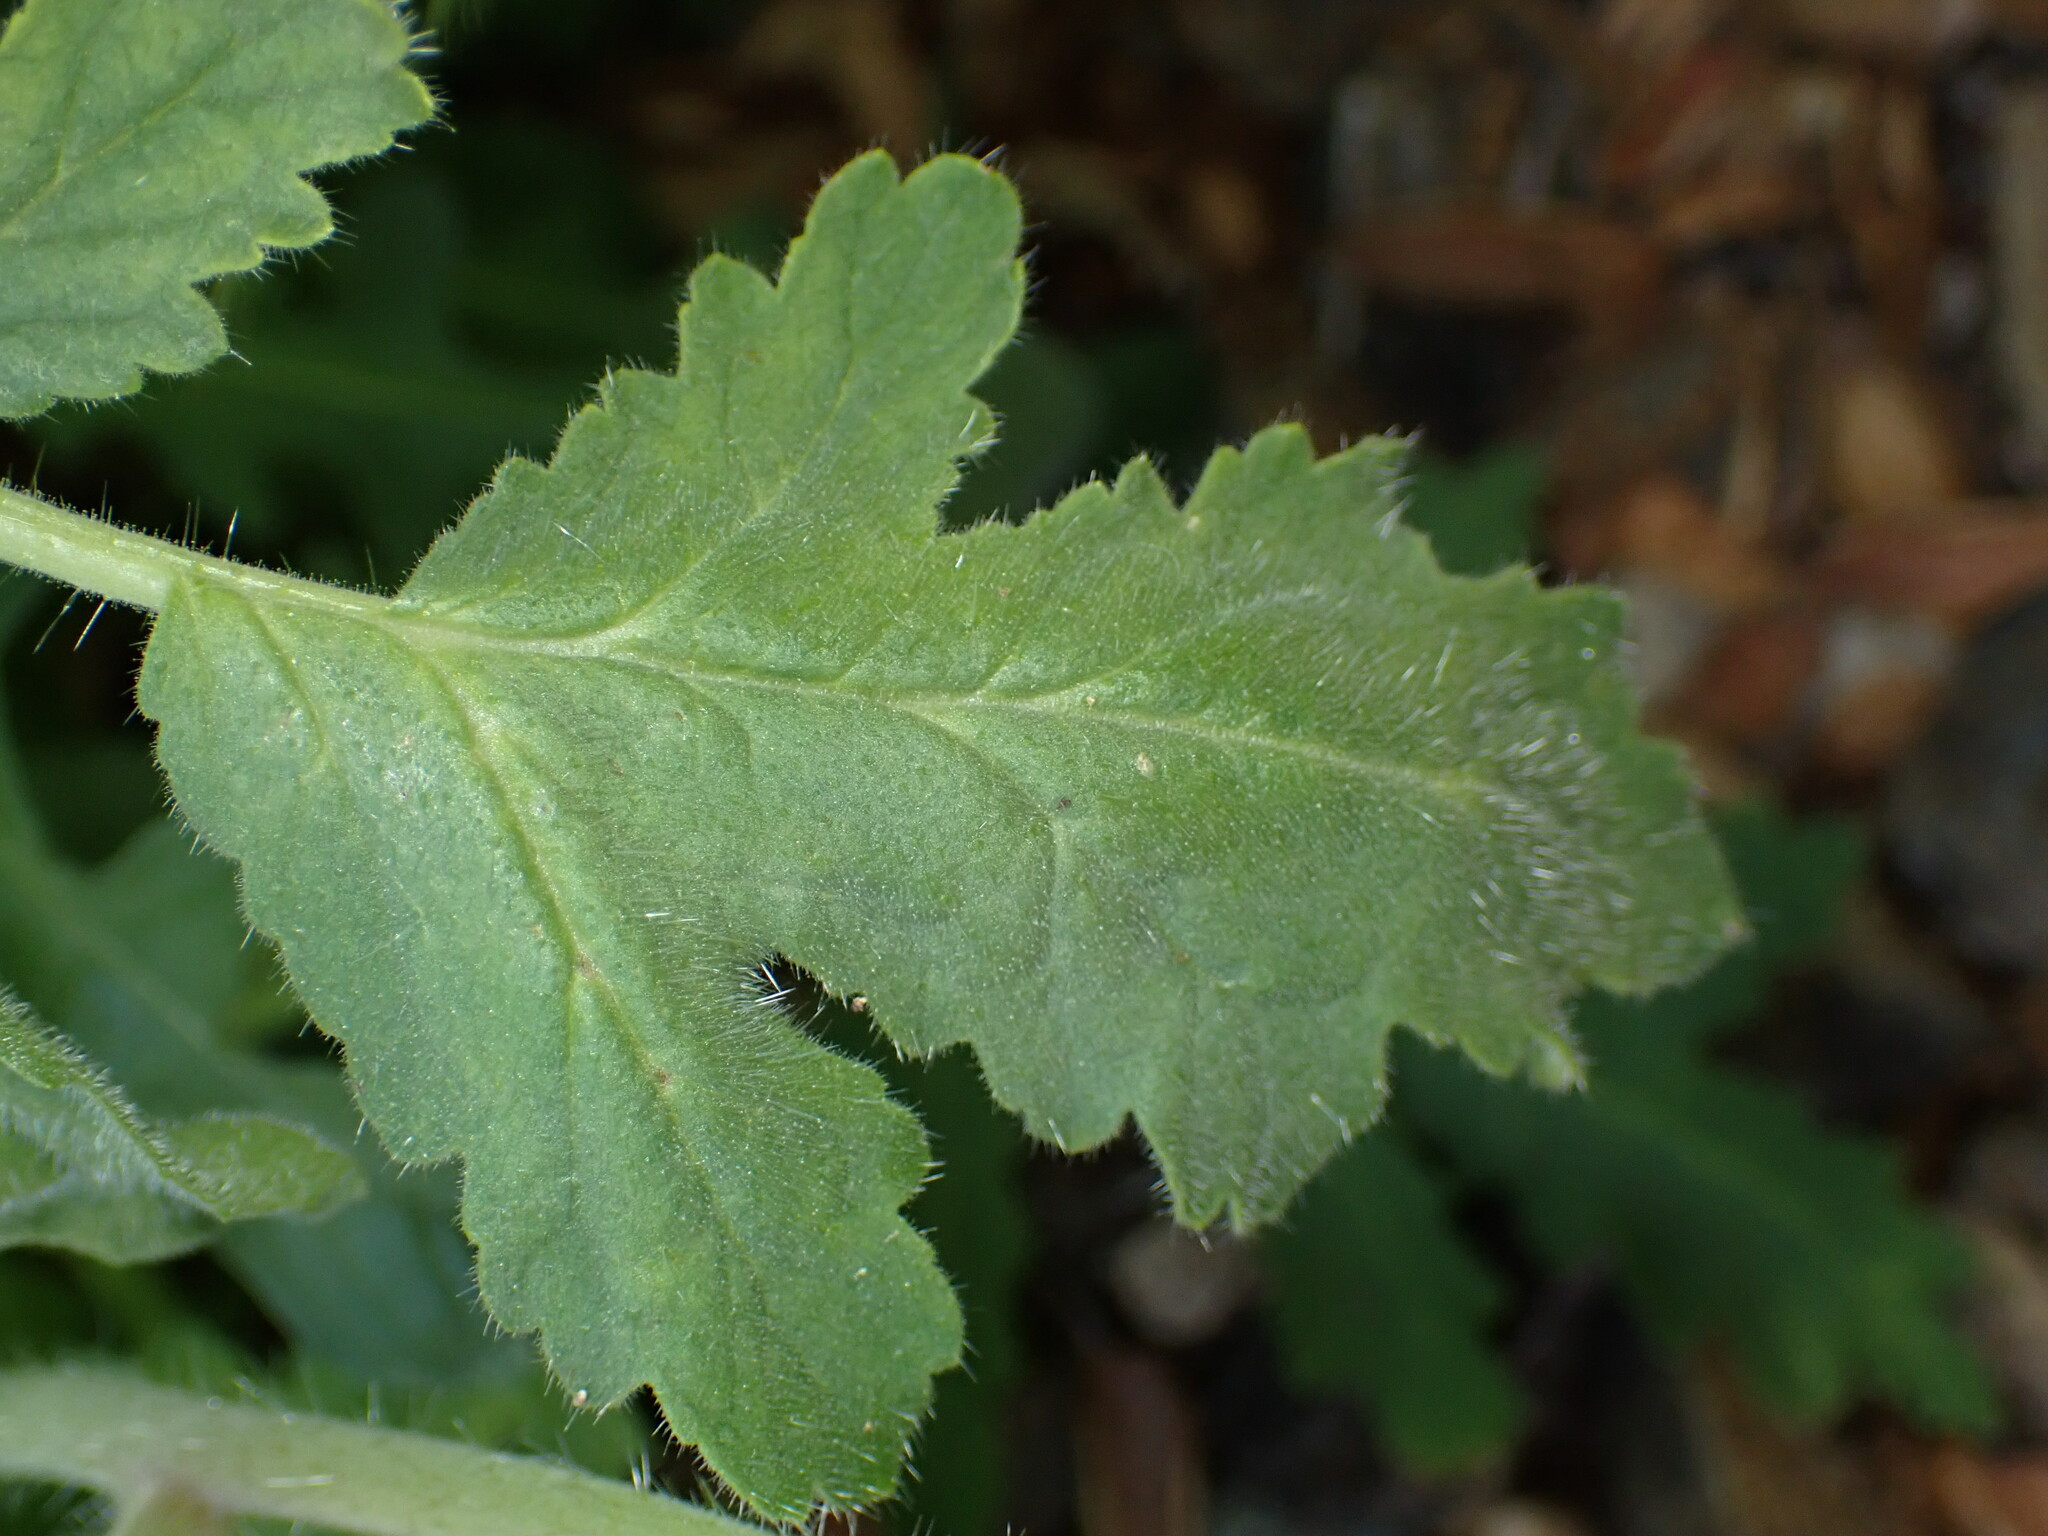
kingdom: Plantae
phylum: Tracheophyta
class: Magnoliopsida
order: Boraginales
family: Hydrophyllaceae
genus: Phacelia
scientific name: Phacelia cicutaria
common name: Caterpillar phacelia
